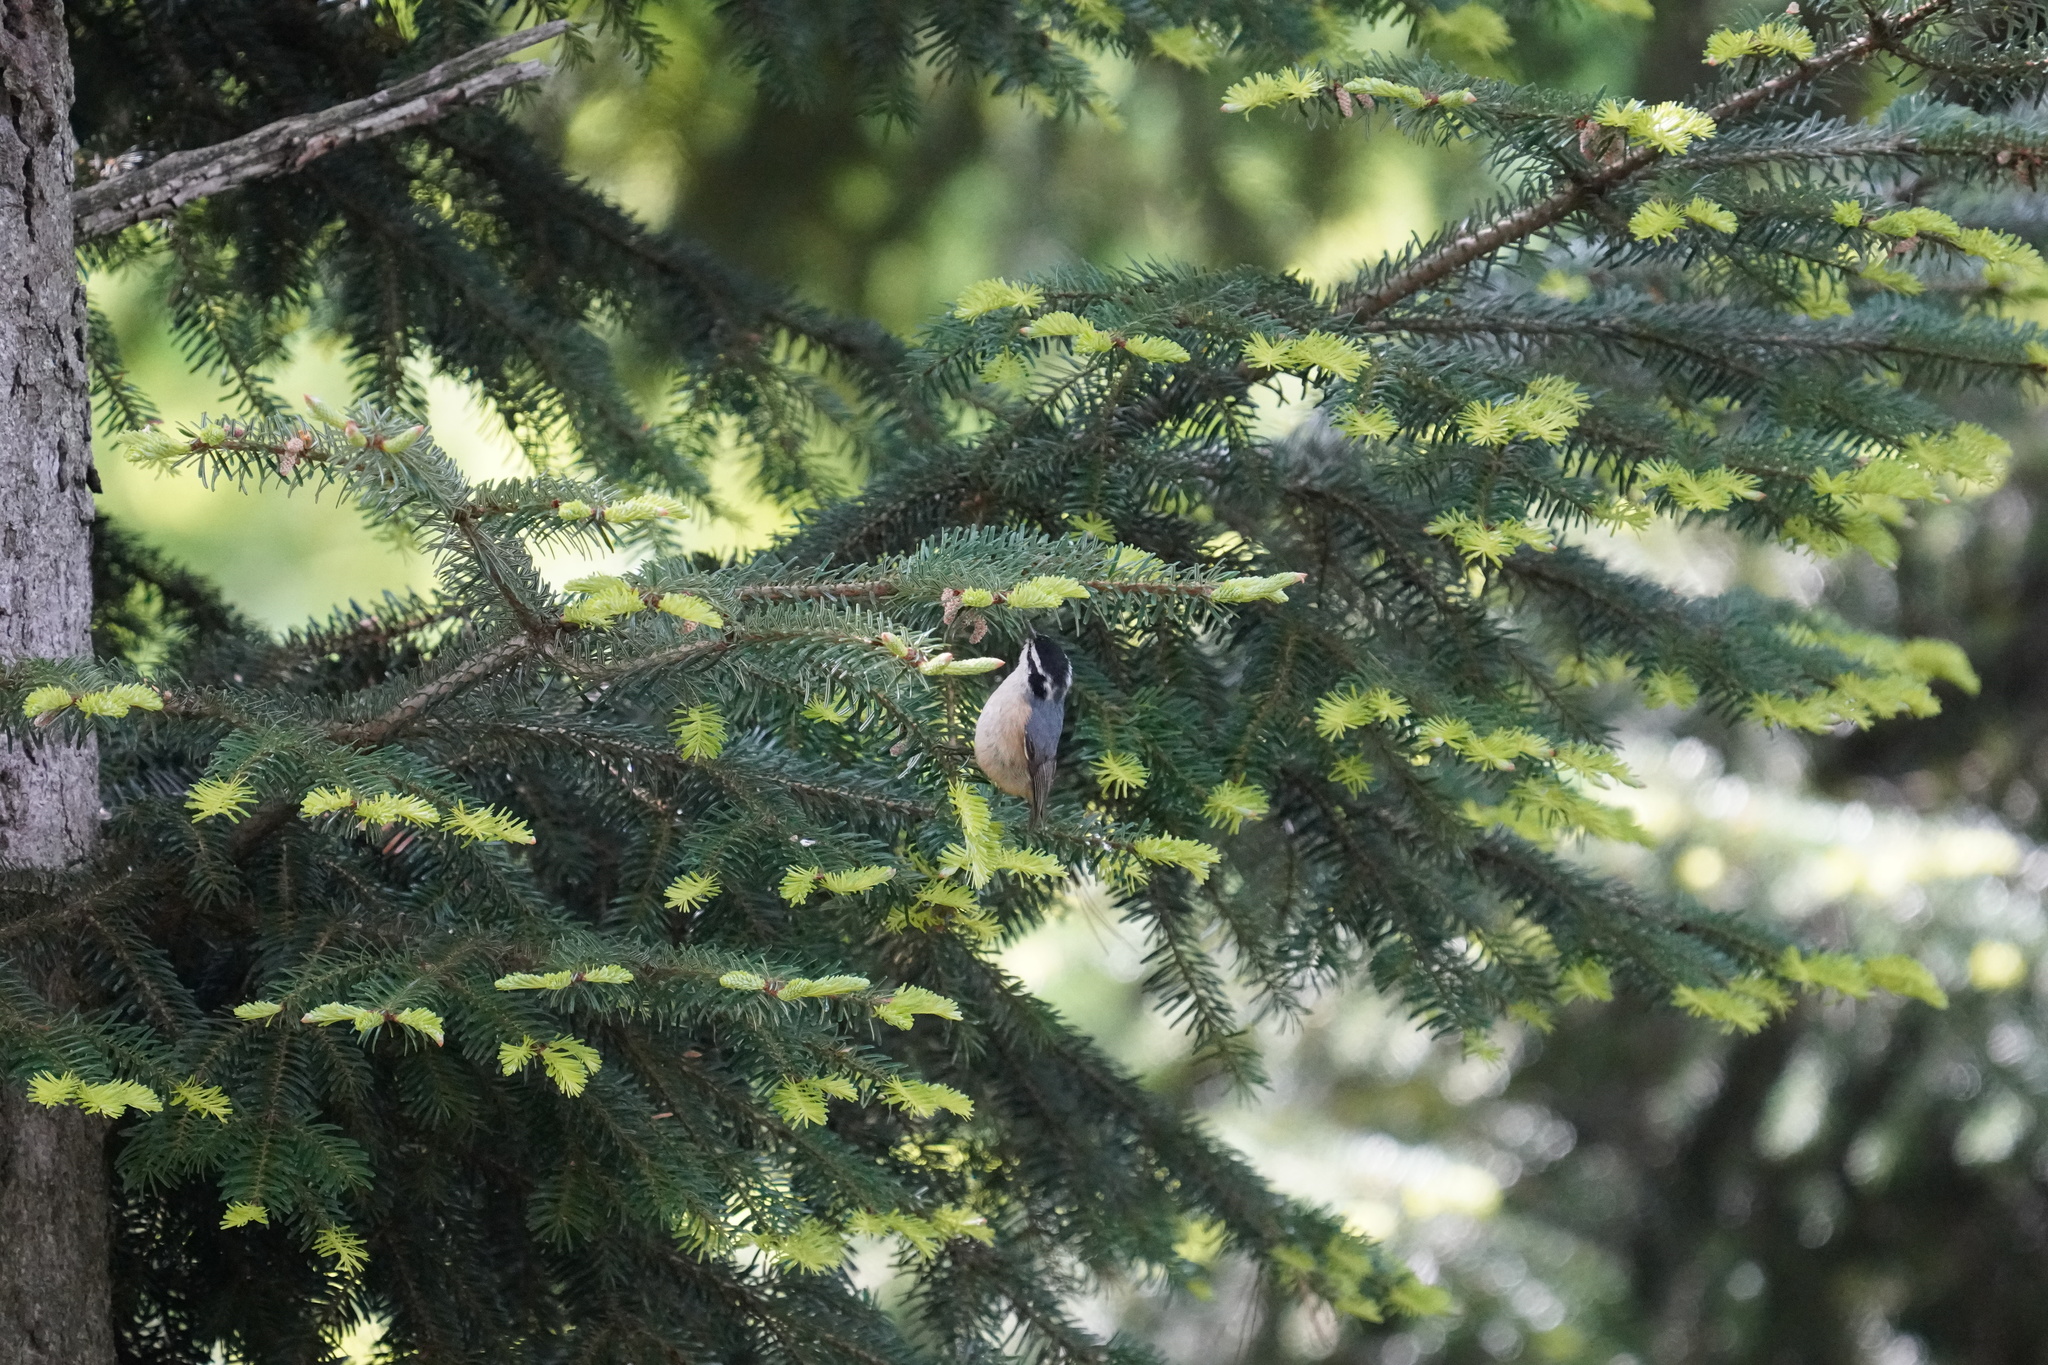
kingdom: Animalia
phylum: Chordata
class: Aves
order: Passeriformes
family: Sittidae
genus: Sitta
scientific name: Sitta canadensis
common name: Red-breasted nuthatch
